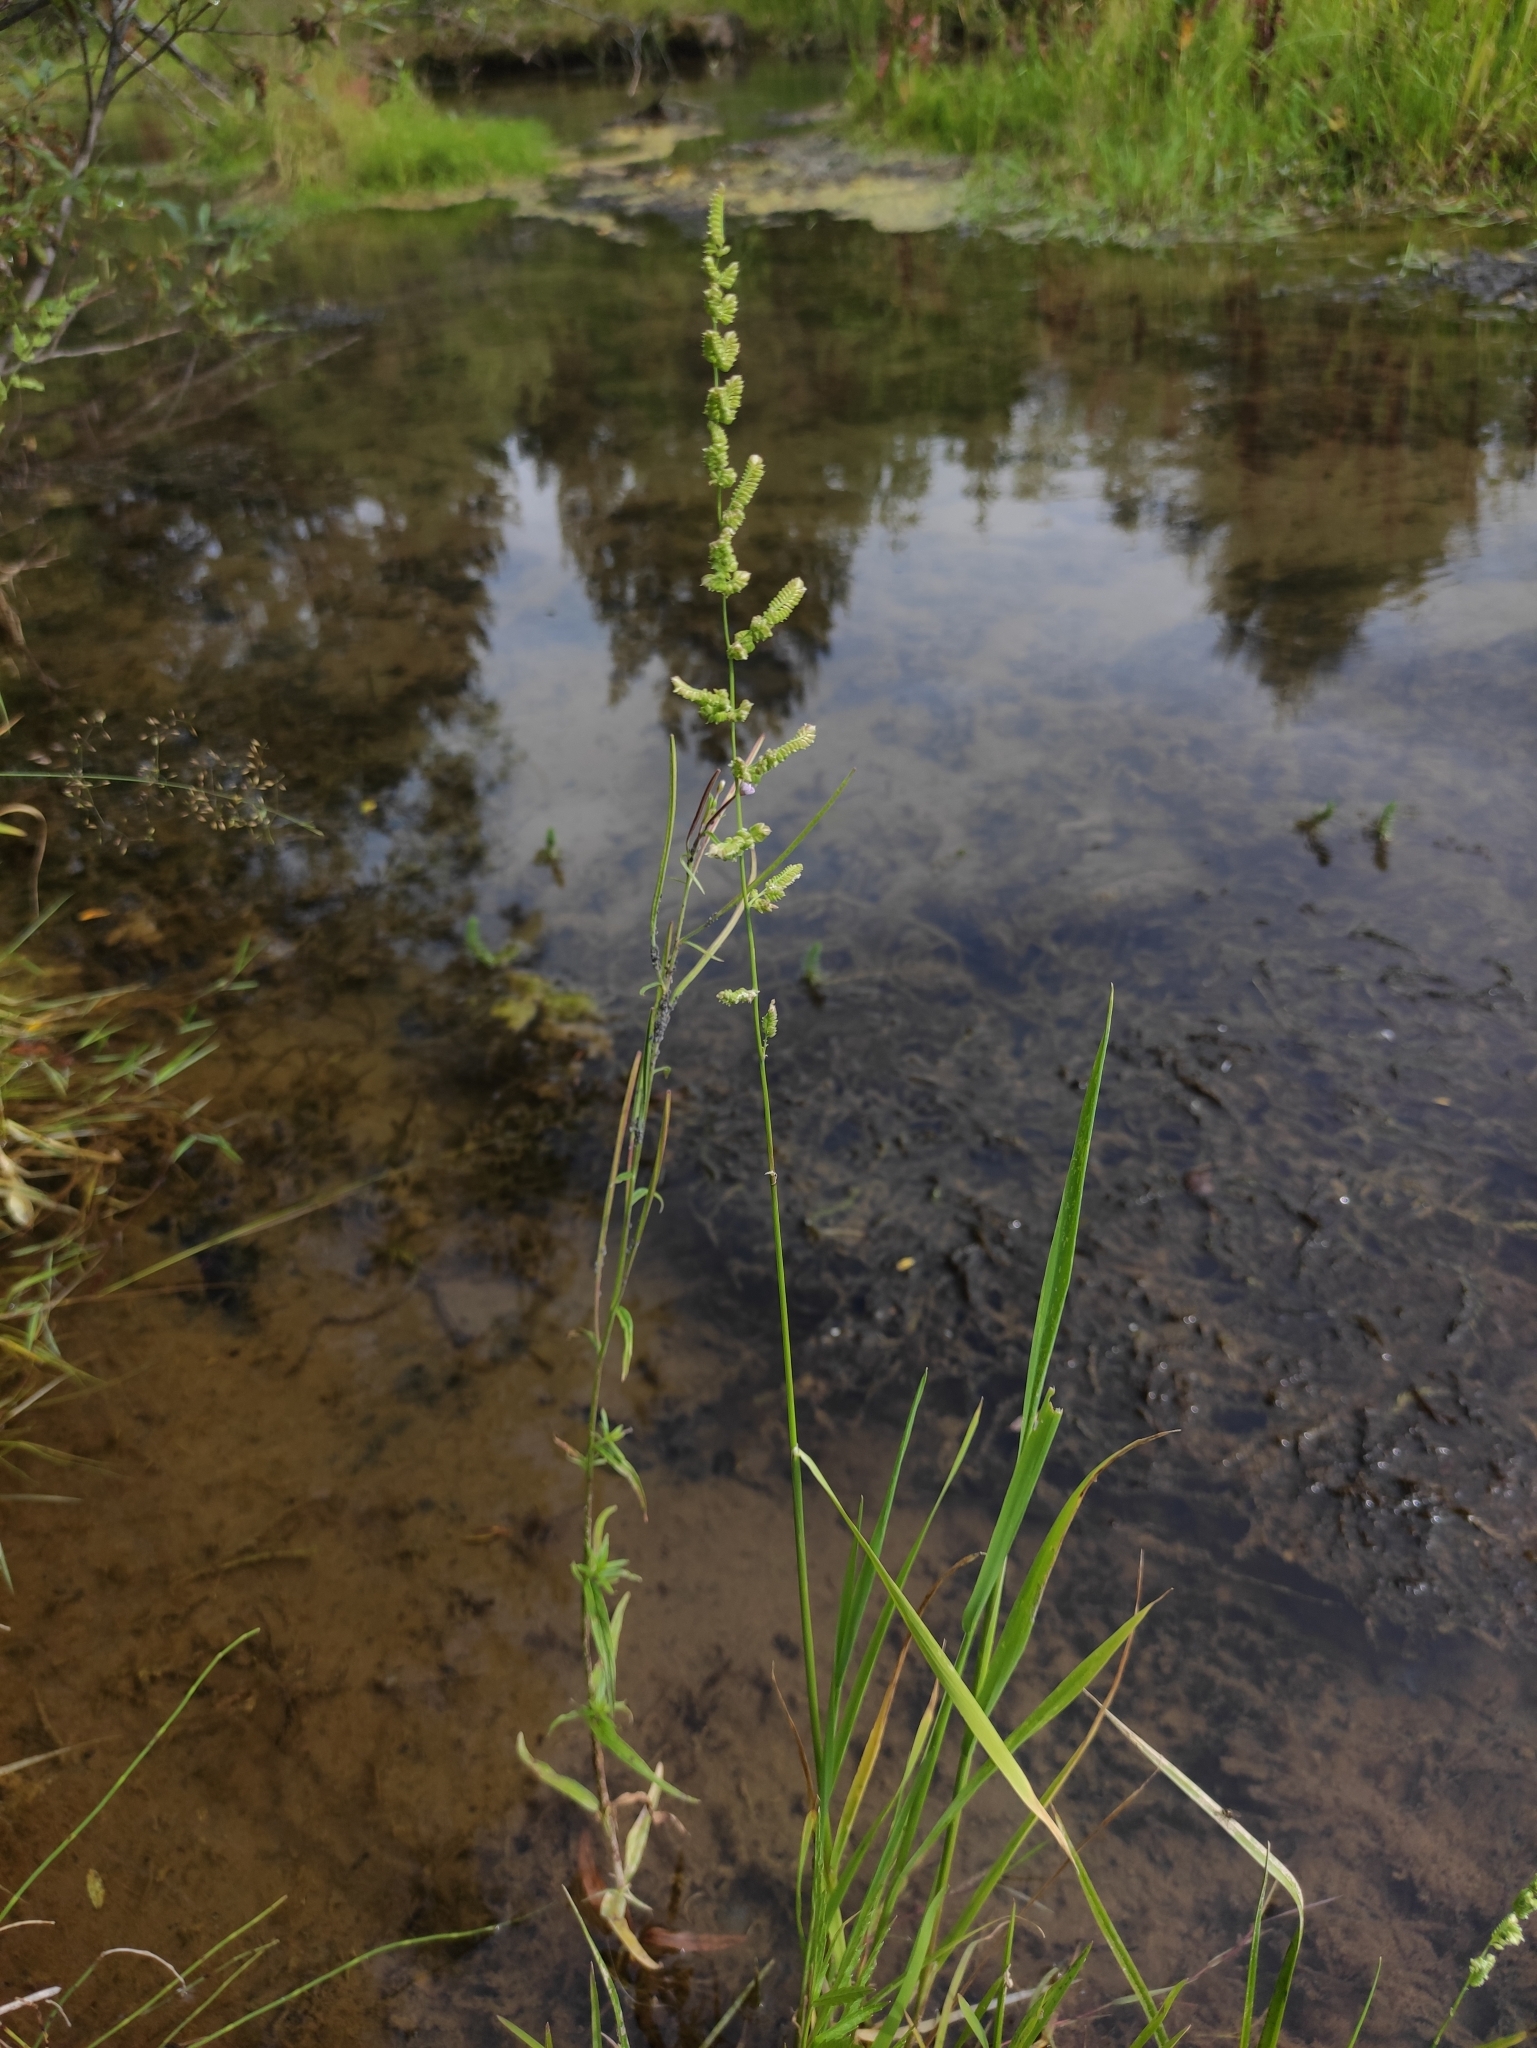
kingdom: Plantae
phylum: Tracheophyta
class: Liliopsida
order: Poales
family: Poaceae
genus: Beckmannia
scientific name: Beckmannia syzigachne
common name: American slough-grass
